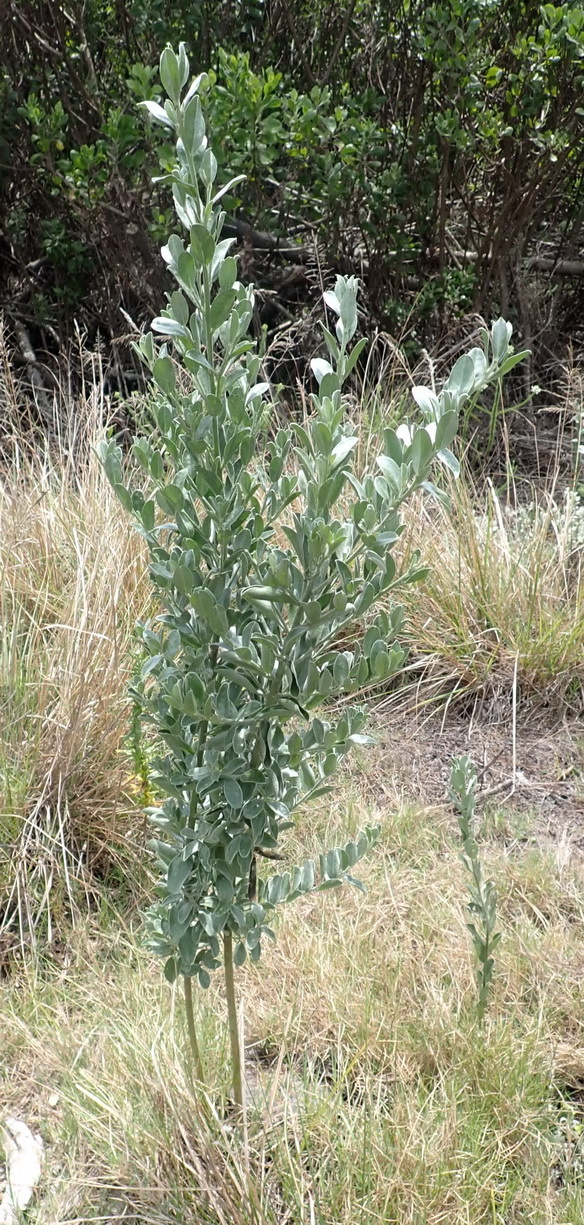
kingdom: Plantae
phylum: Tracheophyta
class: Magnoliopsida
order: Fabales
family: Fabaceae
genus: Podalyria
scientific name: Podalyria myrtillifolia
